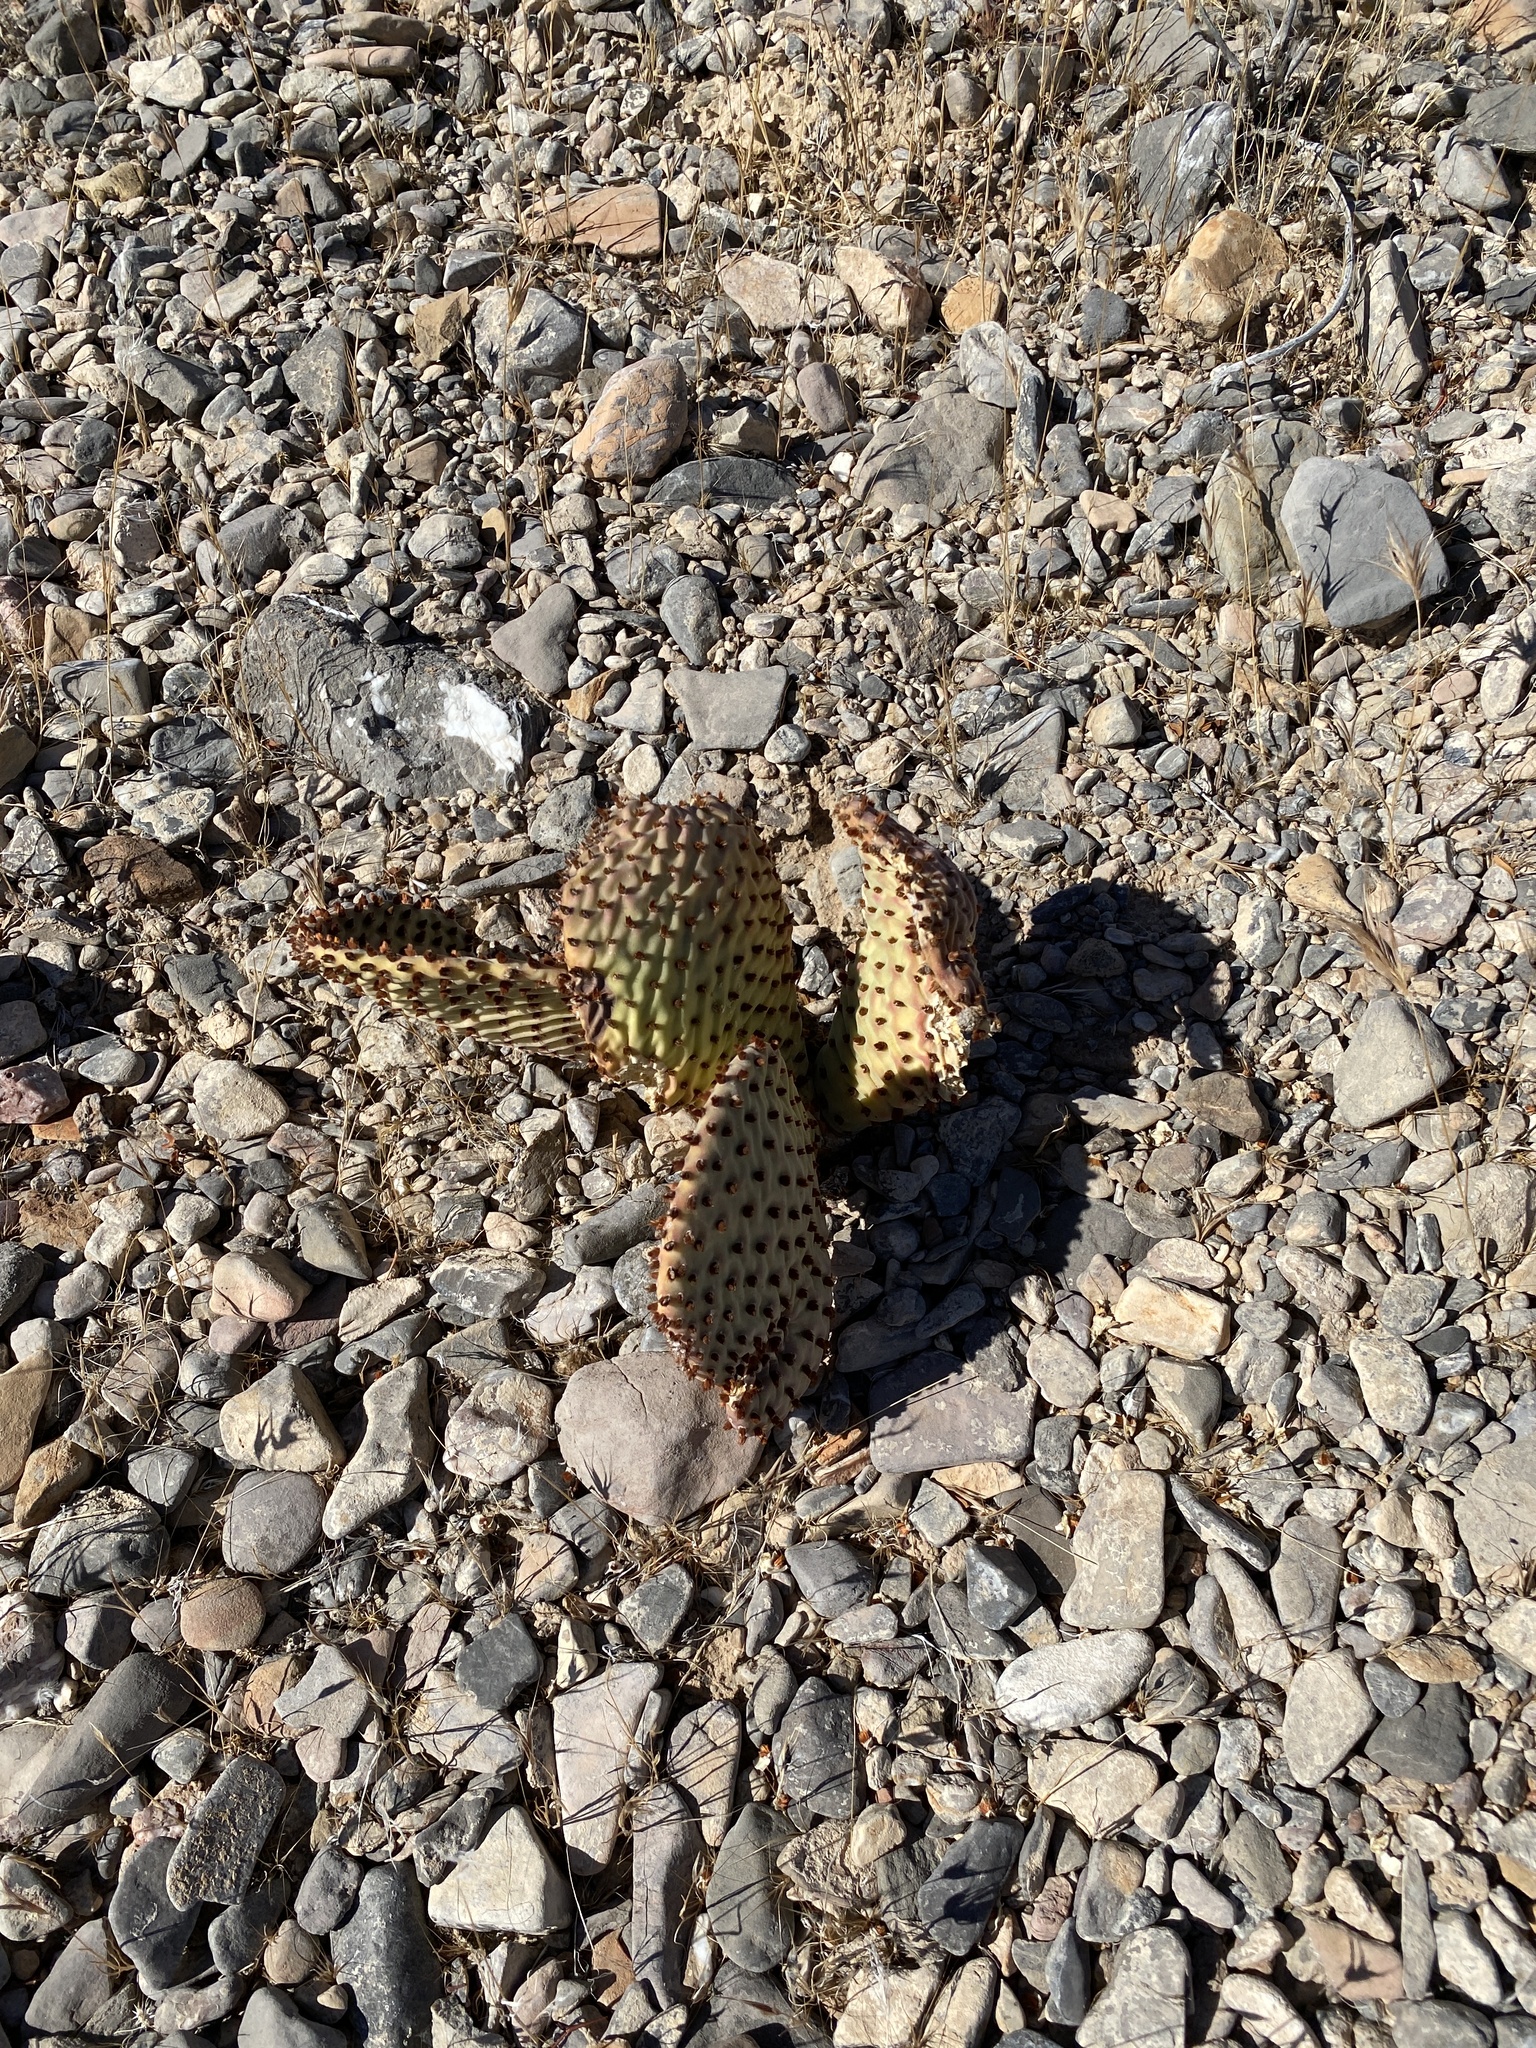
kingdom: Plantae
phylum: Tracheophyta
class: Magnoliopsida
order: Caryophyllales
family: Cactaceae
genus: Opuntia
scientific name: Opuntia basilaris
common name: Beavertail prickly-pear
